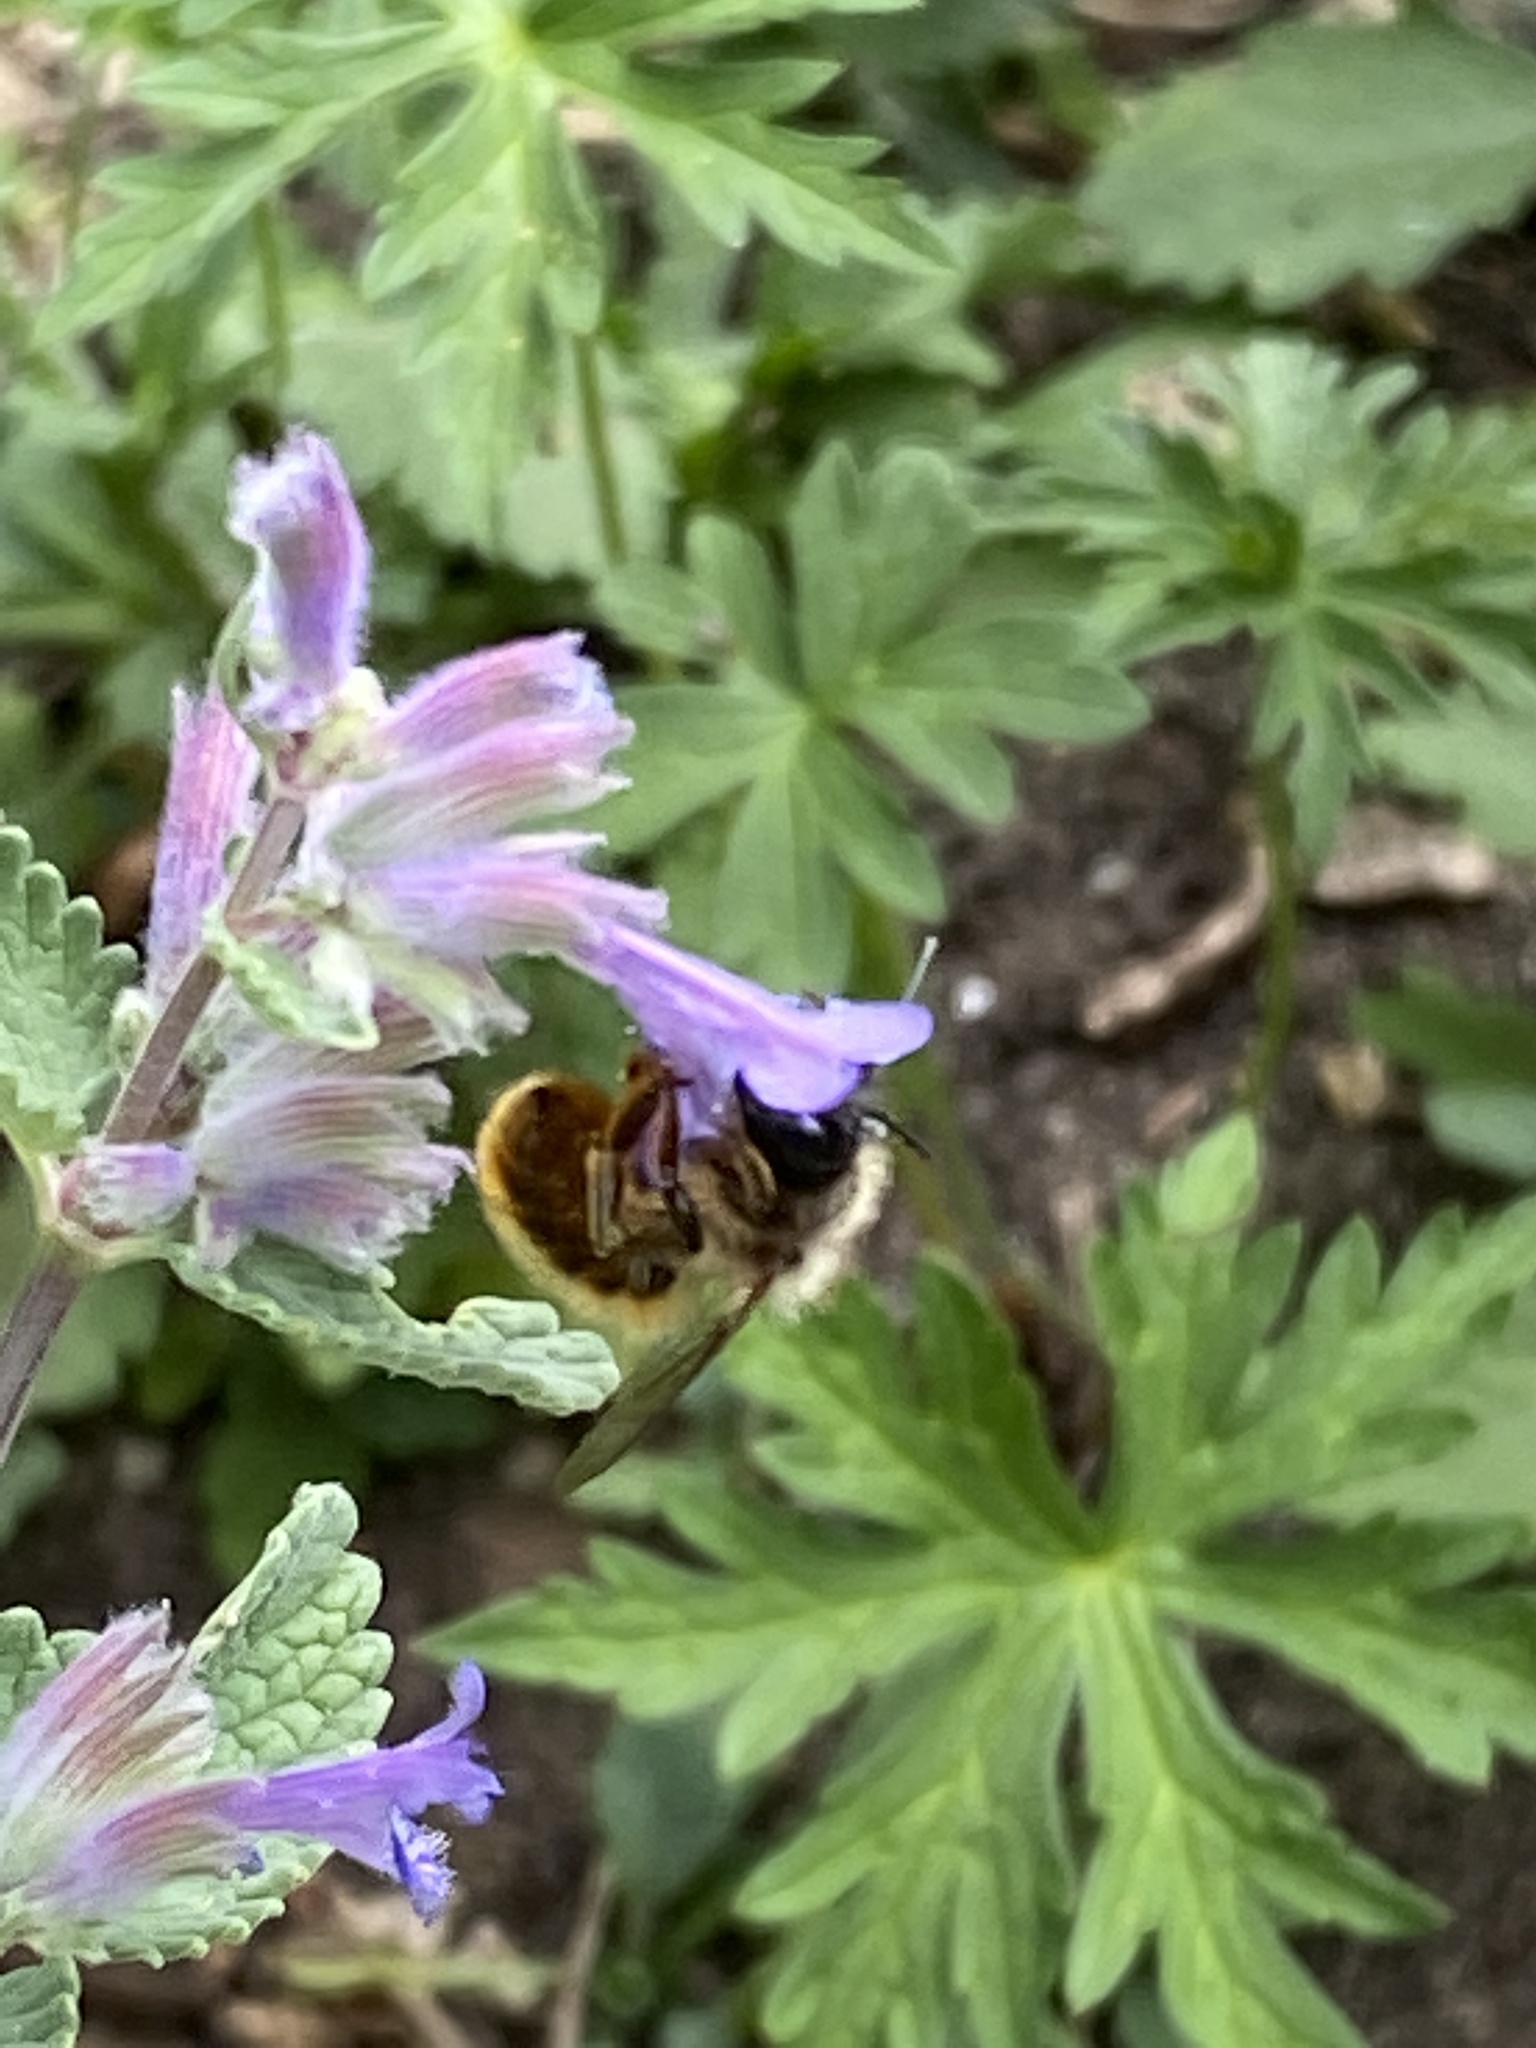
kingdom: Animalia
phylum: Arthropoda
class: Insecta
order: Hymenoptera
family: Megachilidae
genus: Osmia
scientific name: Osmia bicornis
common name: Red mason bee
